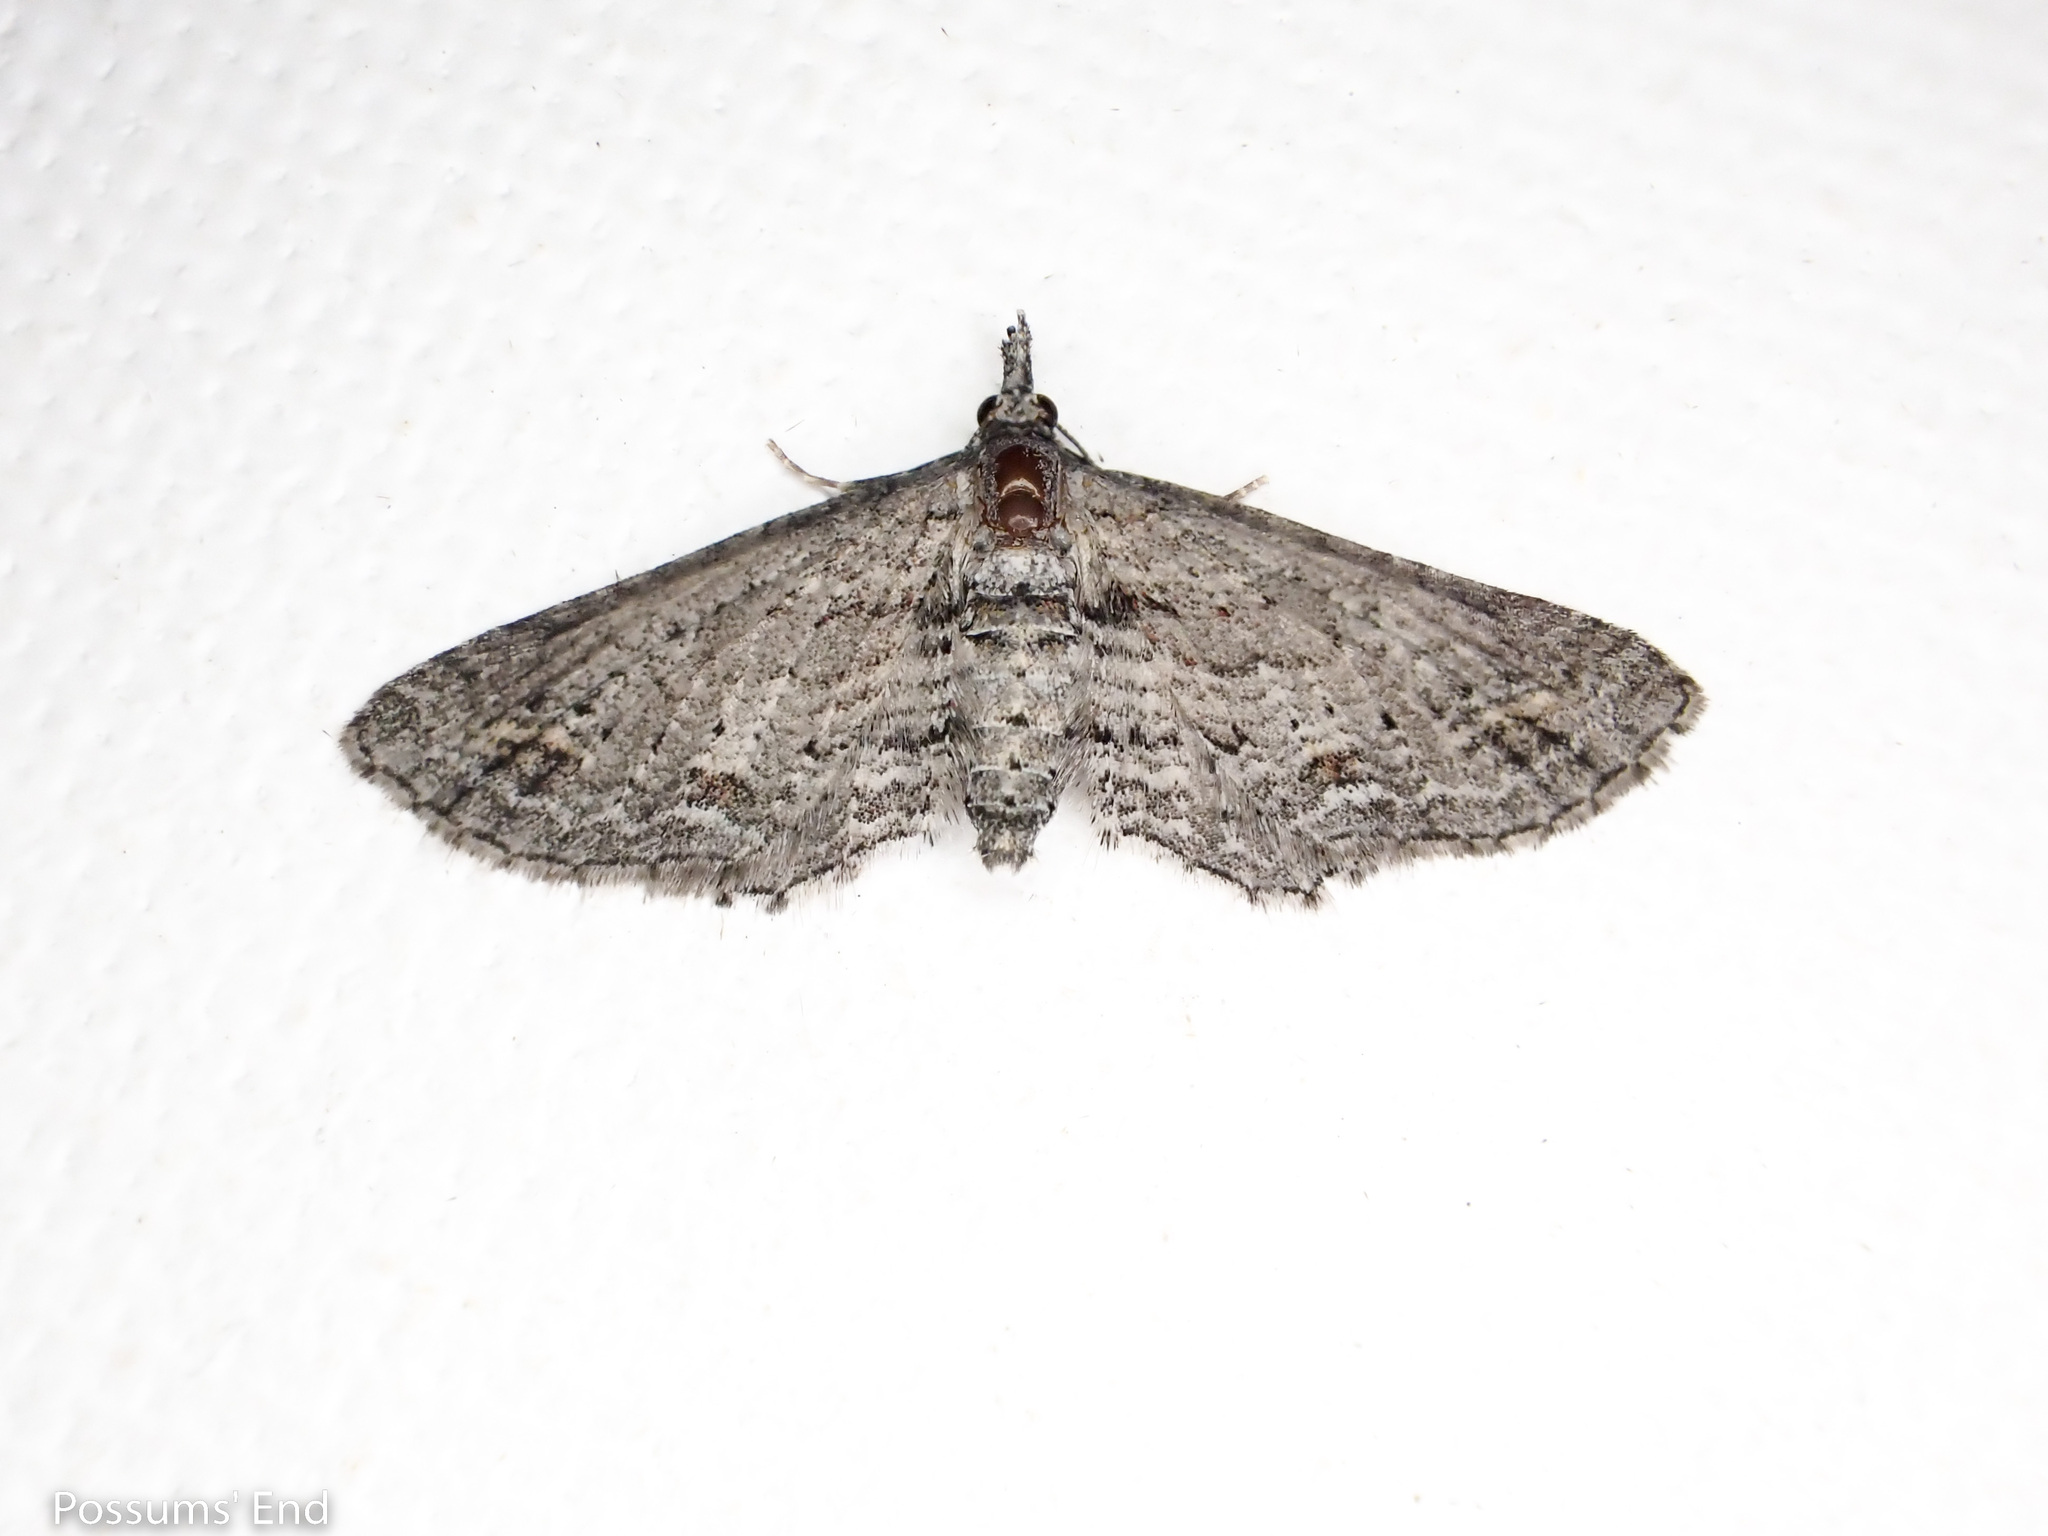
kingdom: Animalia
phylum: Arthropoda
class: Insecta
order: Lepidoptera
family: Geometridae
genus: Pasiphila
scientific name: Pasiphila humilis
